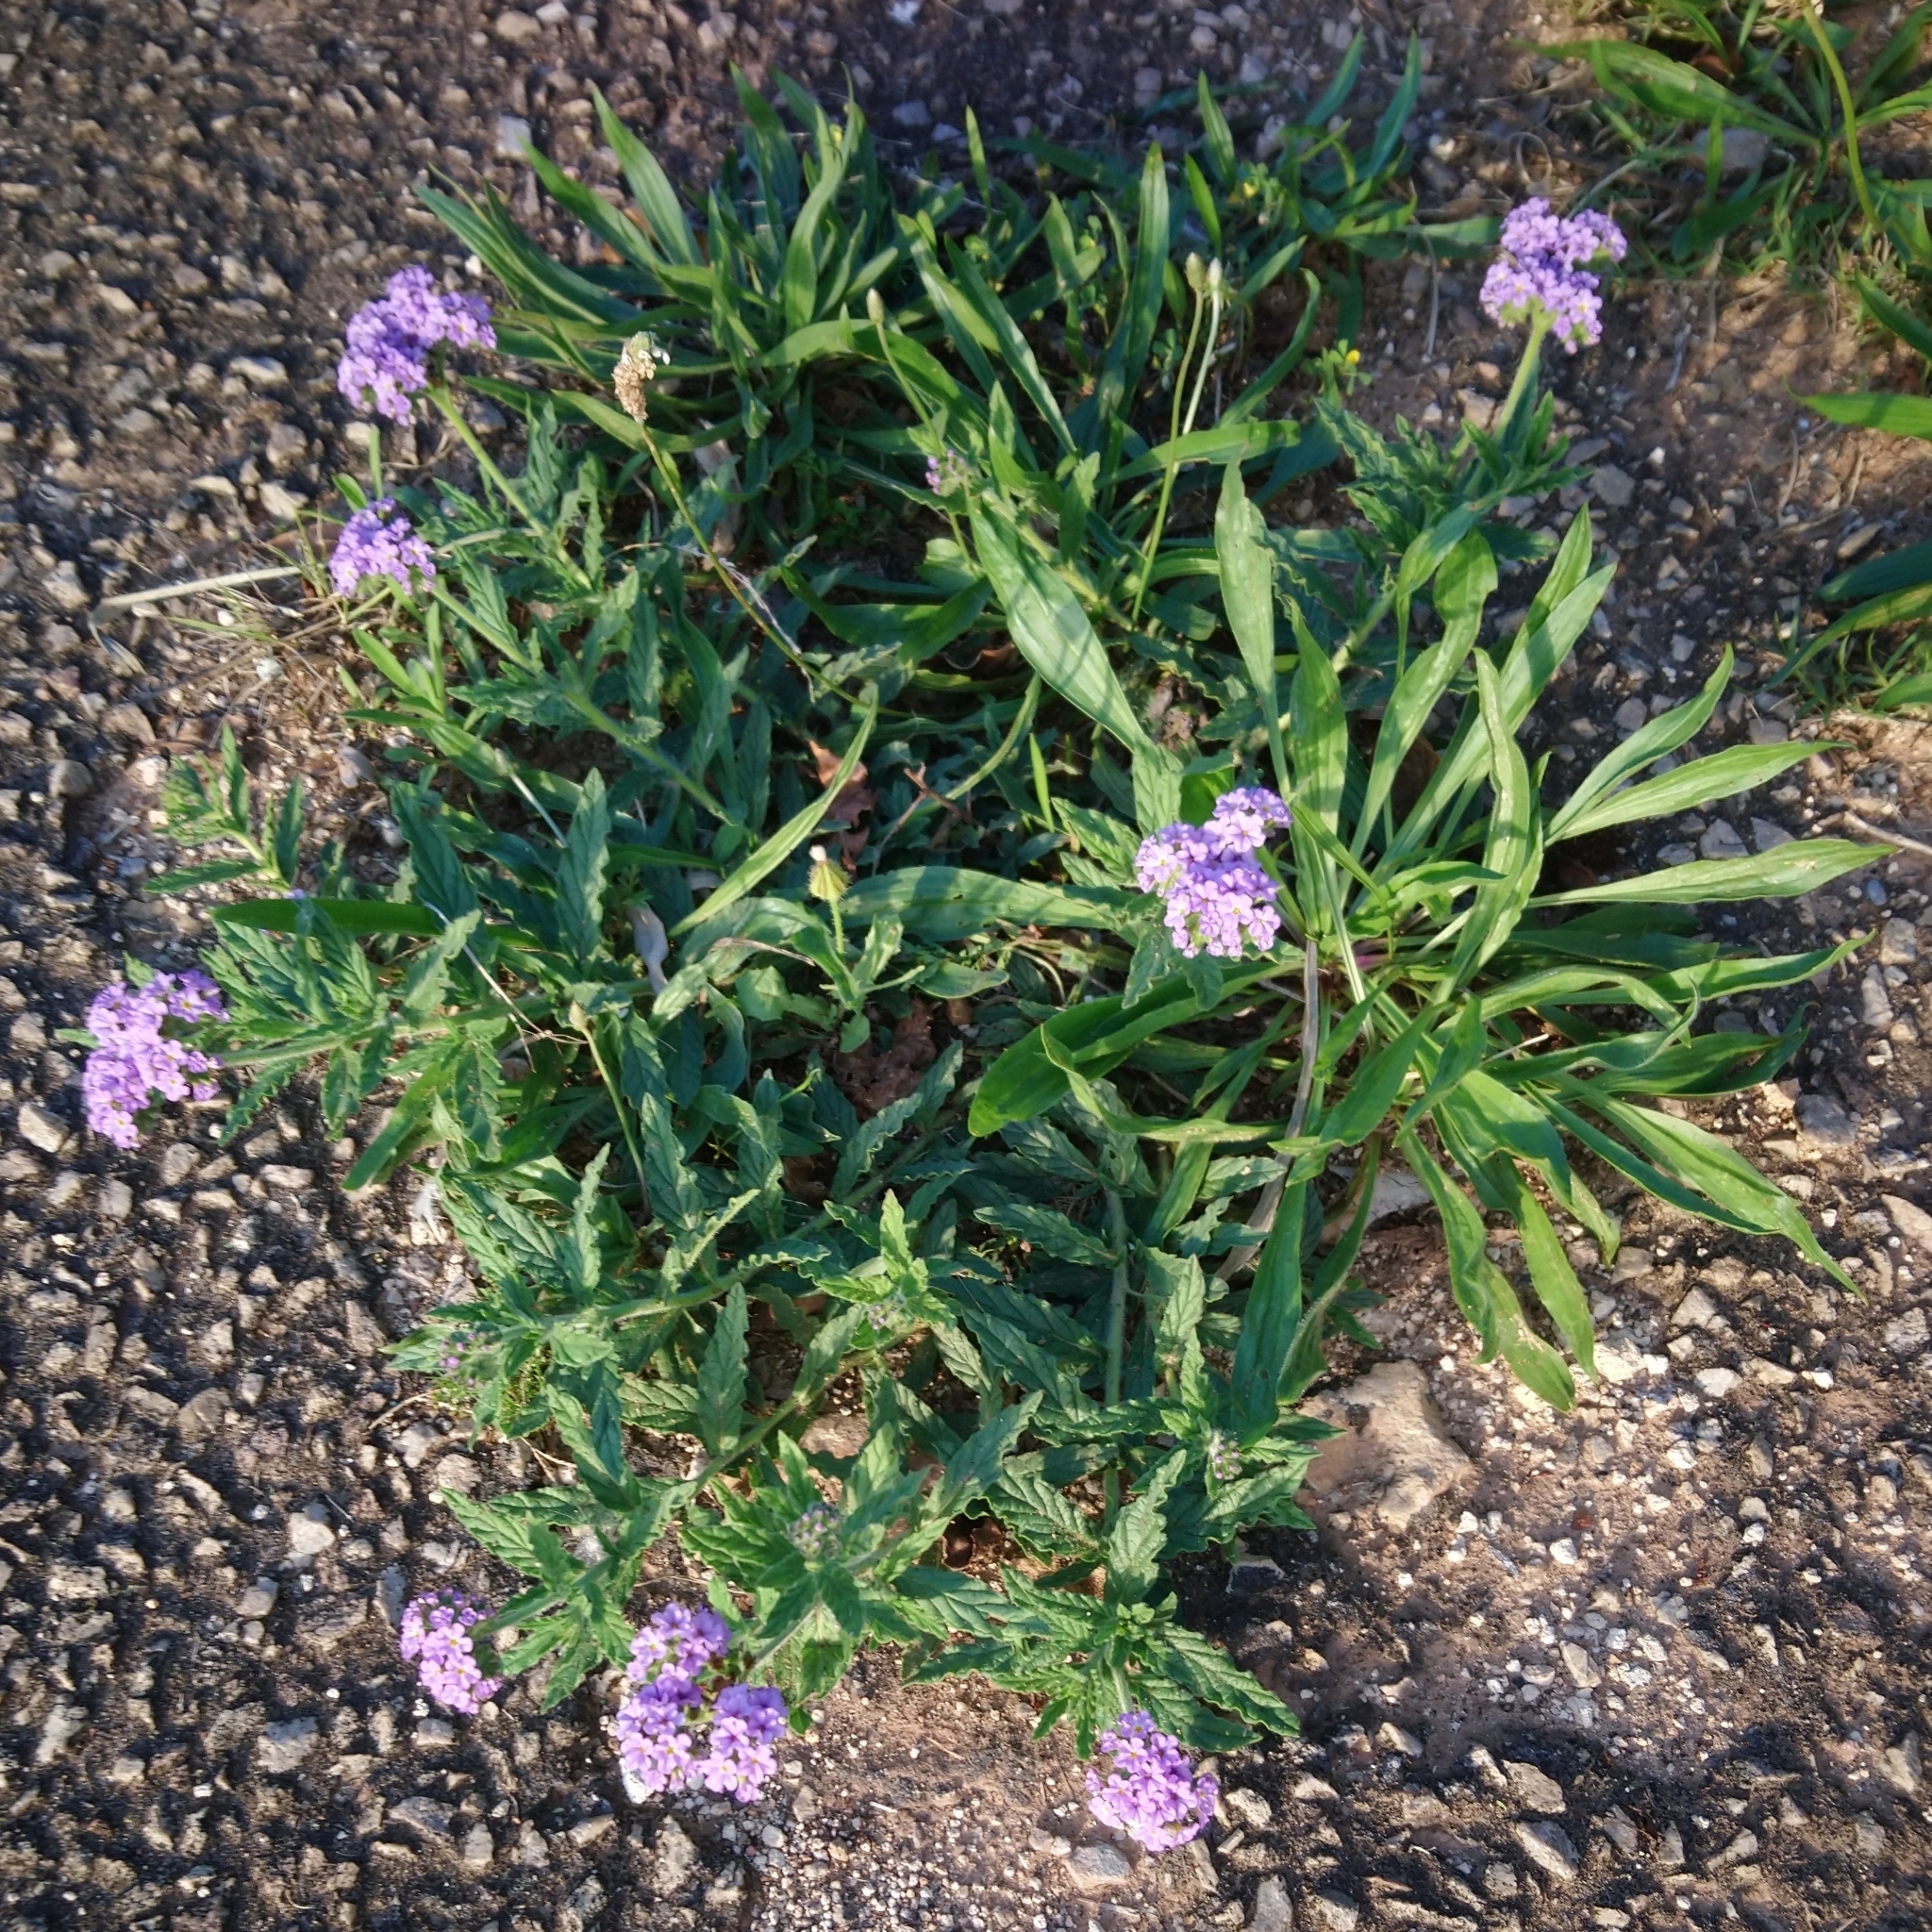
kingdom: Plantae
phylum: Tracheophyta
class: Magnoliopsida
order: Boraginales
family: Heliotropiaceae
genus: Heliotropium
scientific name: Heliotropium amplexicaule
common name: Clasping heliotrope
